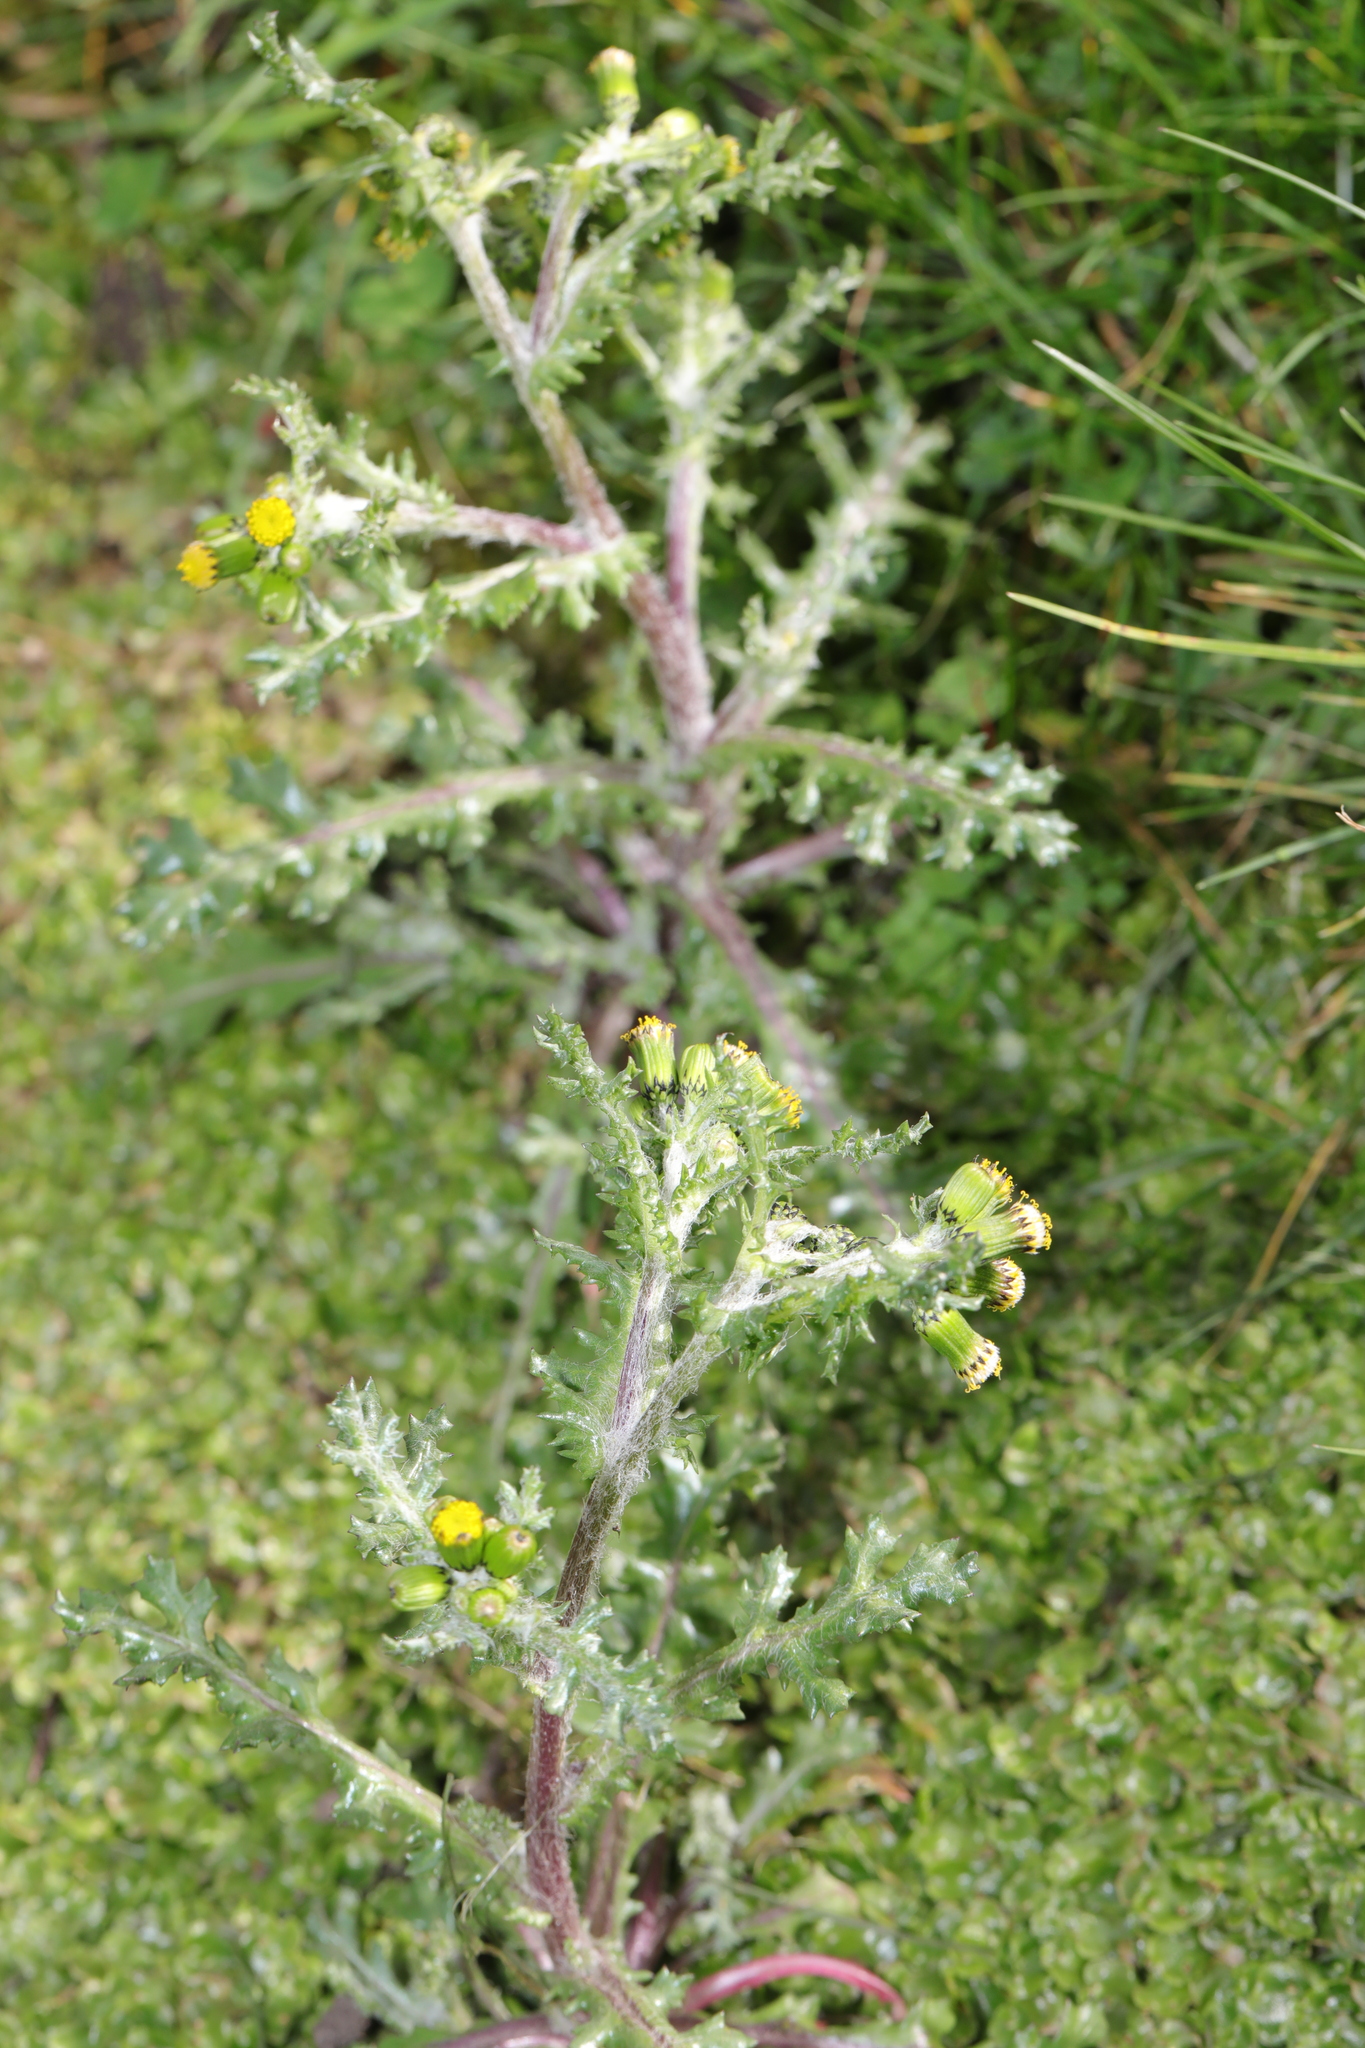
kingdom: Plantae
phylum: Tracheophyta
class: Magnoliopsida
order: Asterales
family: Asteraceae
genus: Senecio
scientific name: Senecio vulgaris
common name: Old-man-in-the-spring
